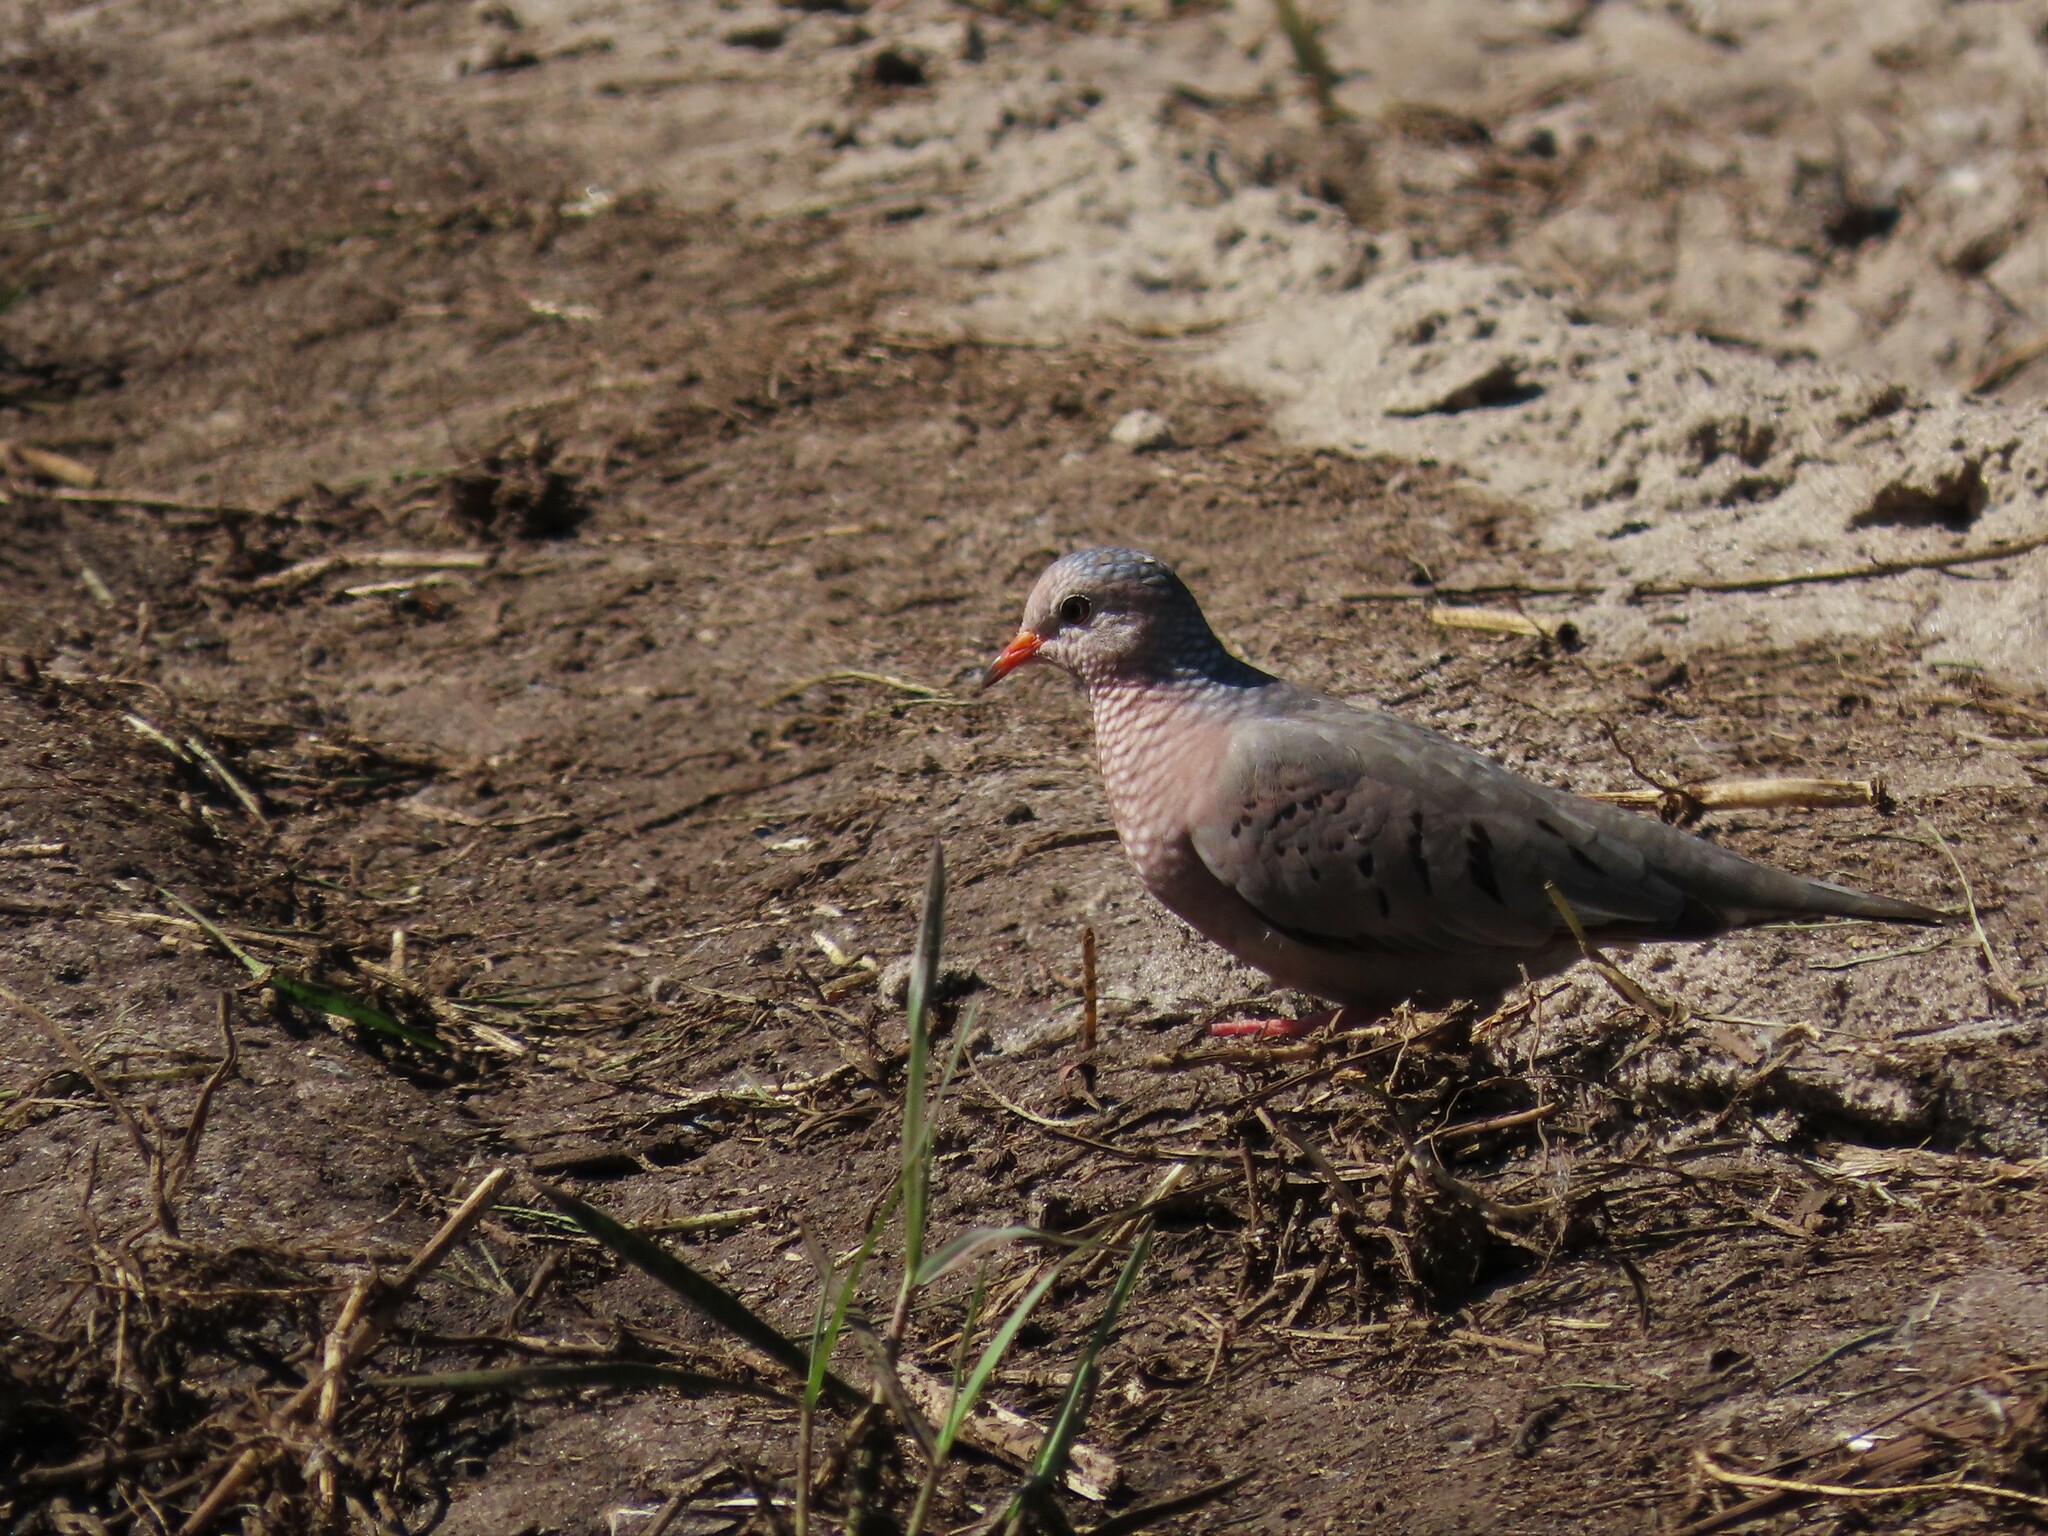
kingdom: Animalia
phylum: Chordata
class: Aves
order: Columbiformes
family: Columbidae
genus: Columbina
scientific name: Columbina passerina
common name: Common ground-dove
